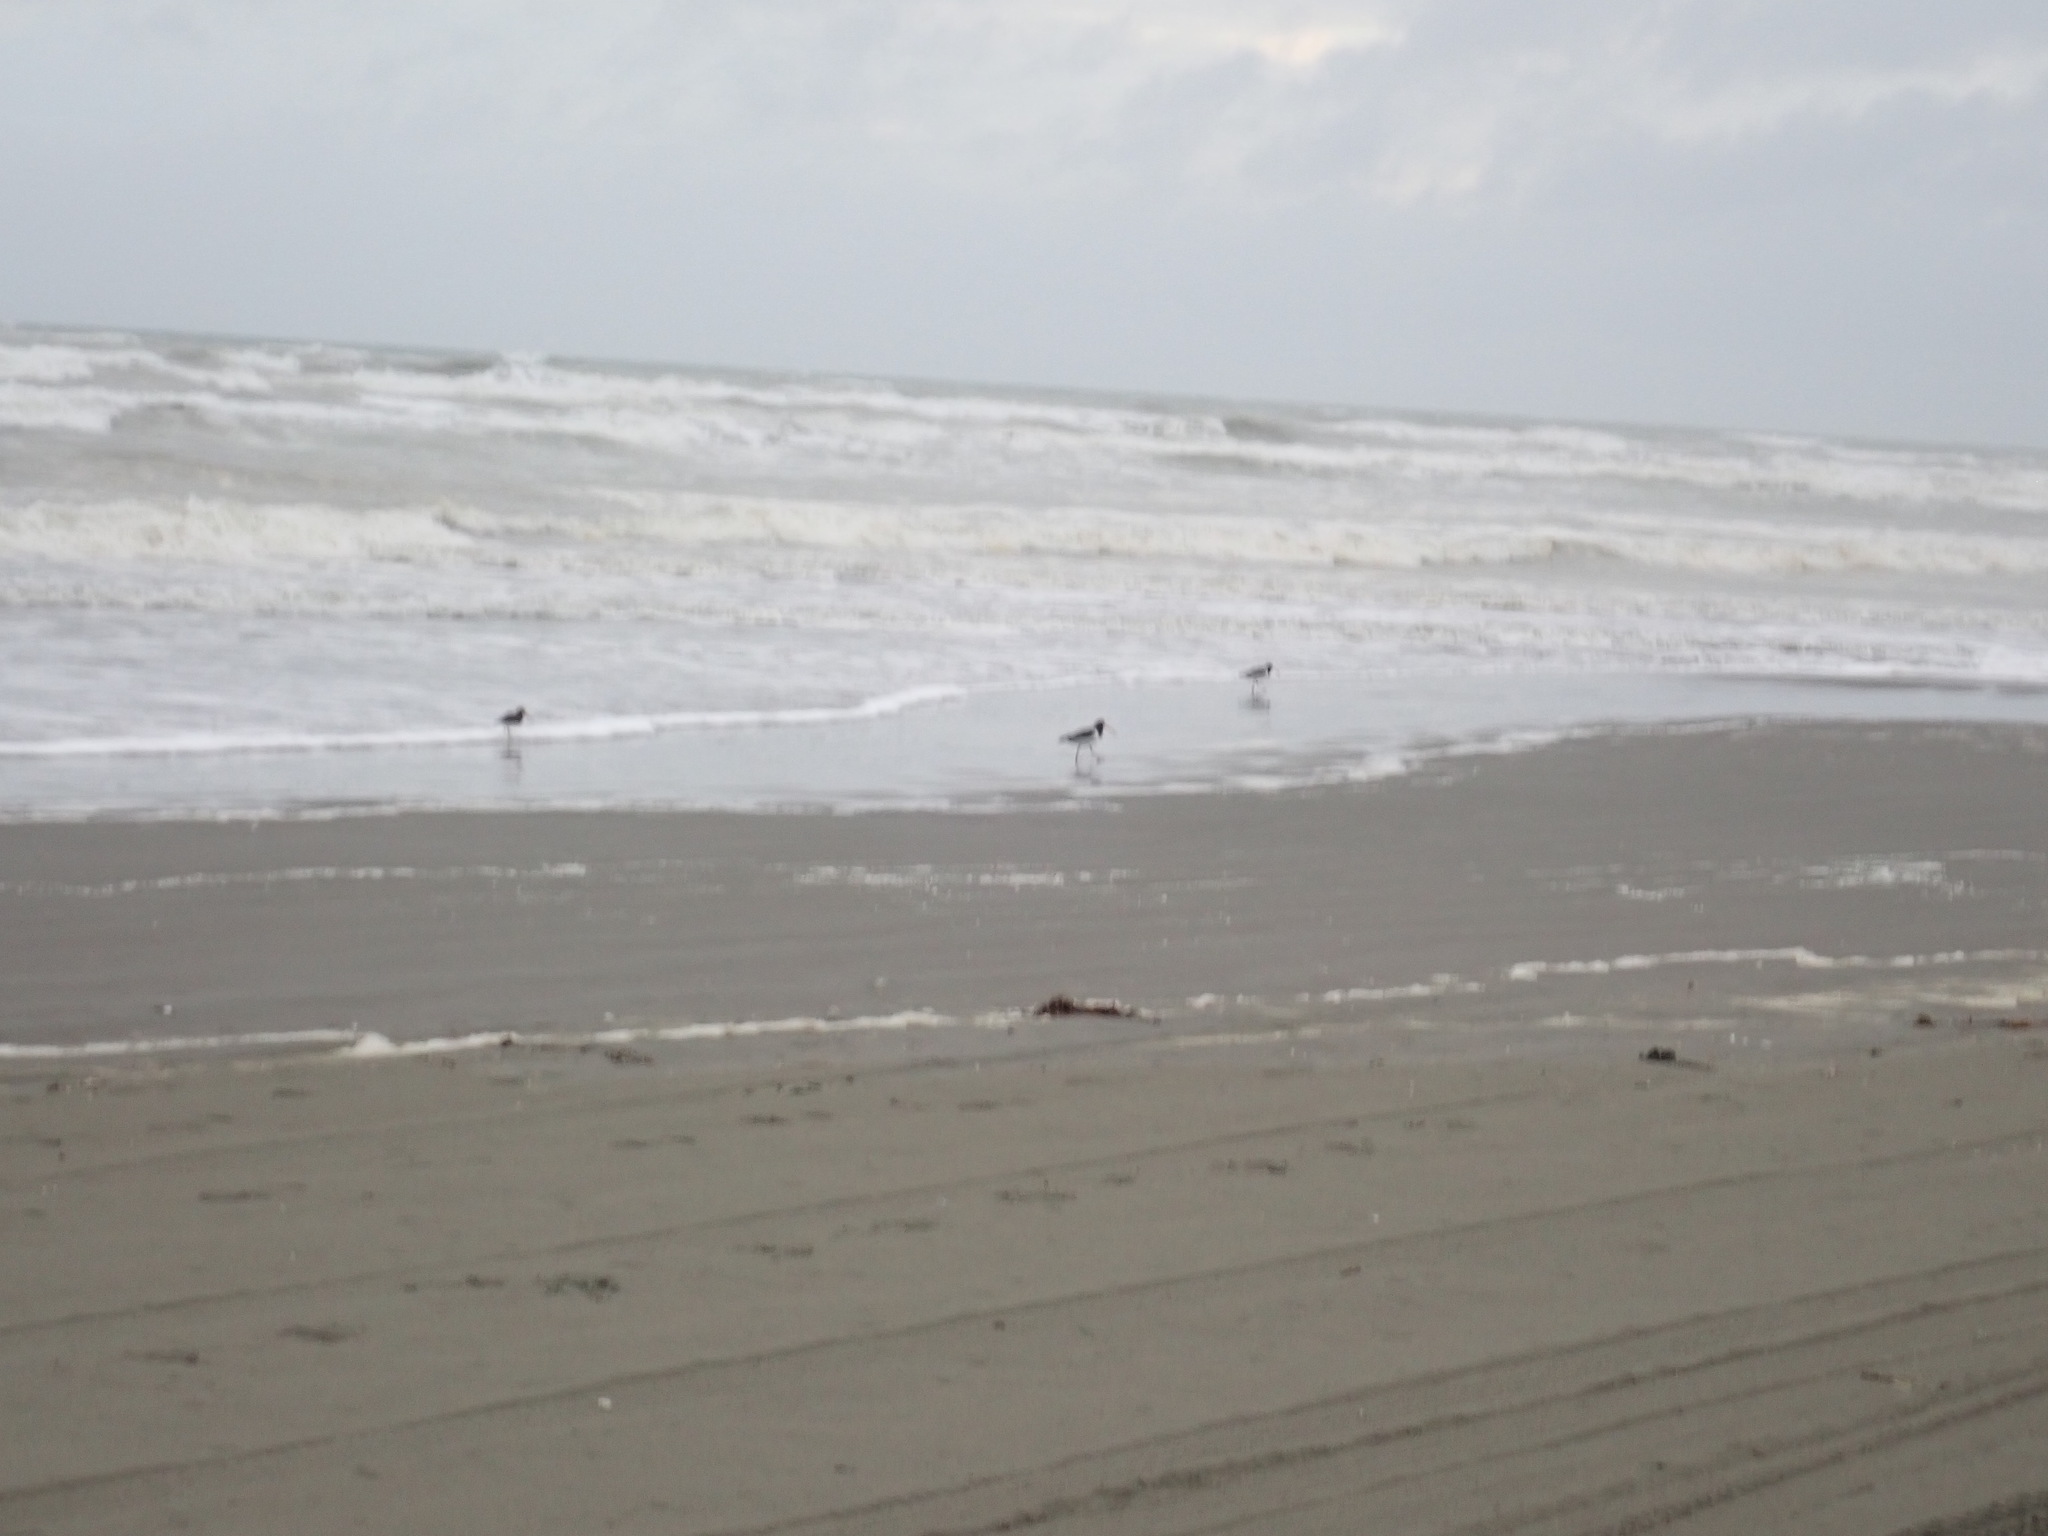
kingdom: Animalia
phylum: Chordata
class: Aves
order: Charadriiformes
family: Haematopodidae
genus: Haematopus
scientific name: Haematopus finschi
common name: South island oystercatcher
